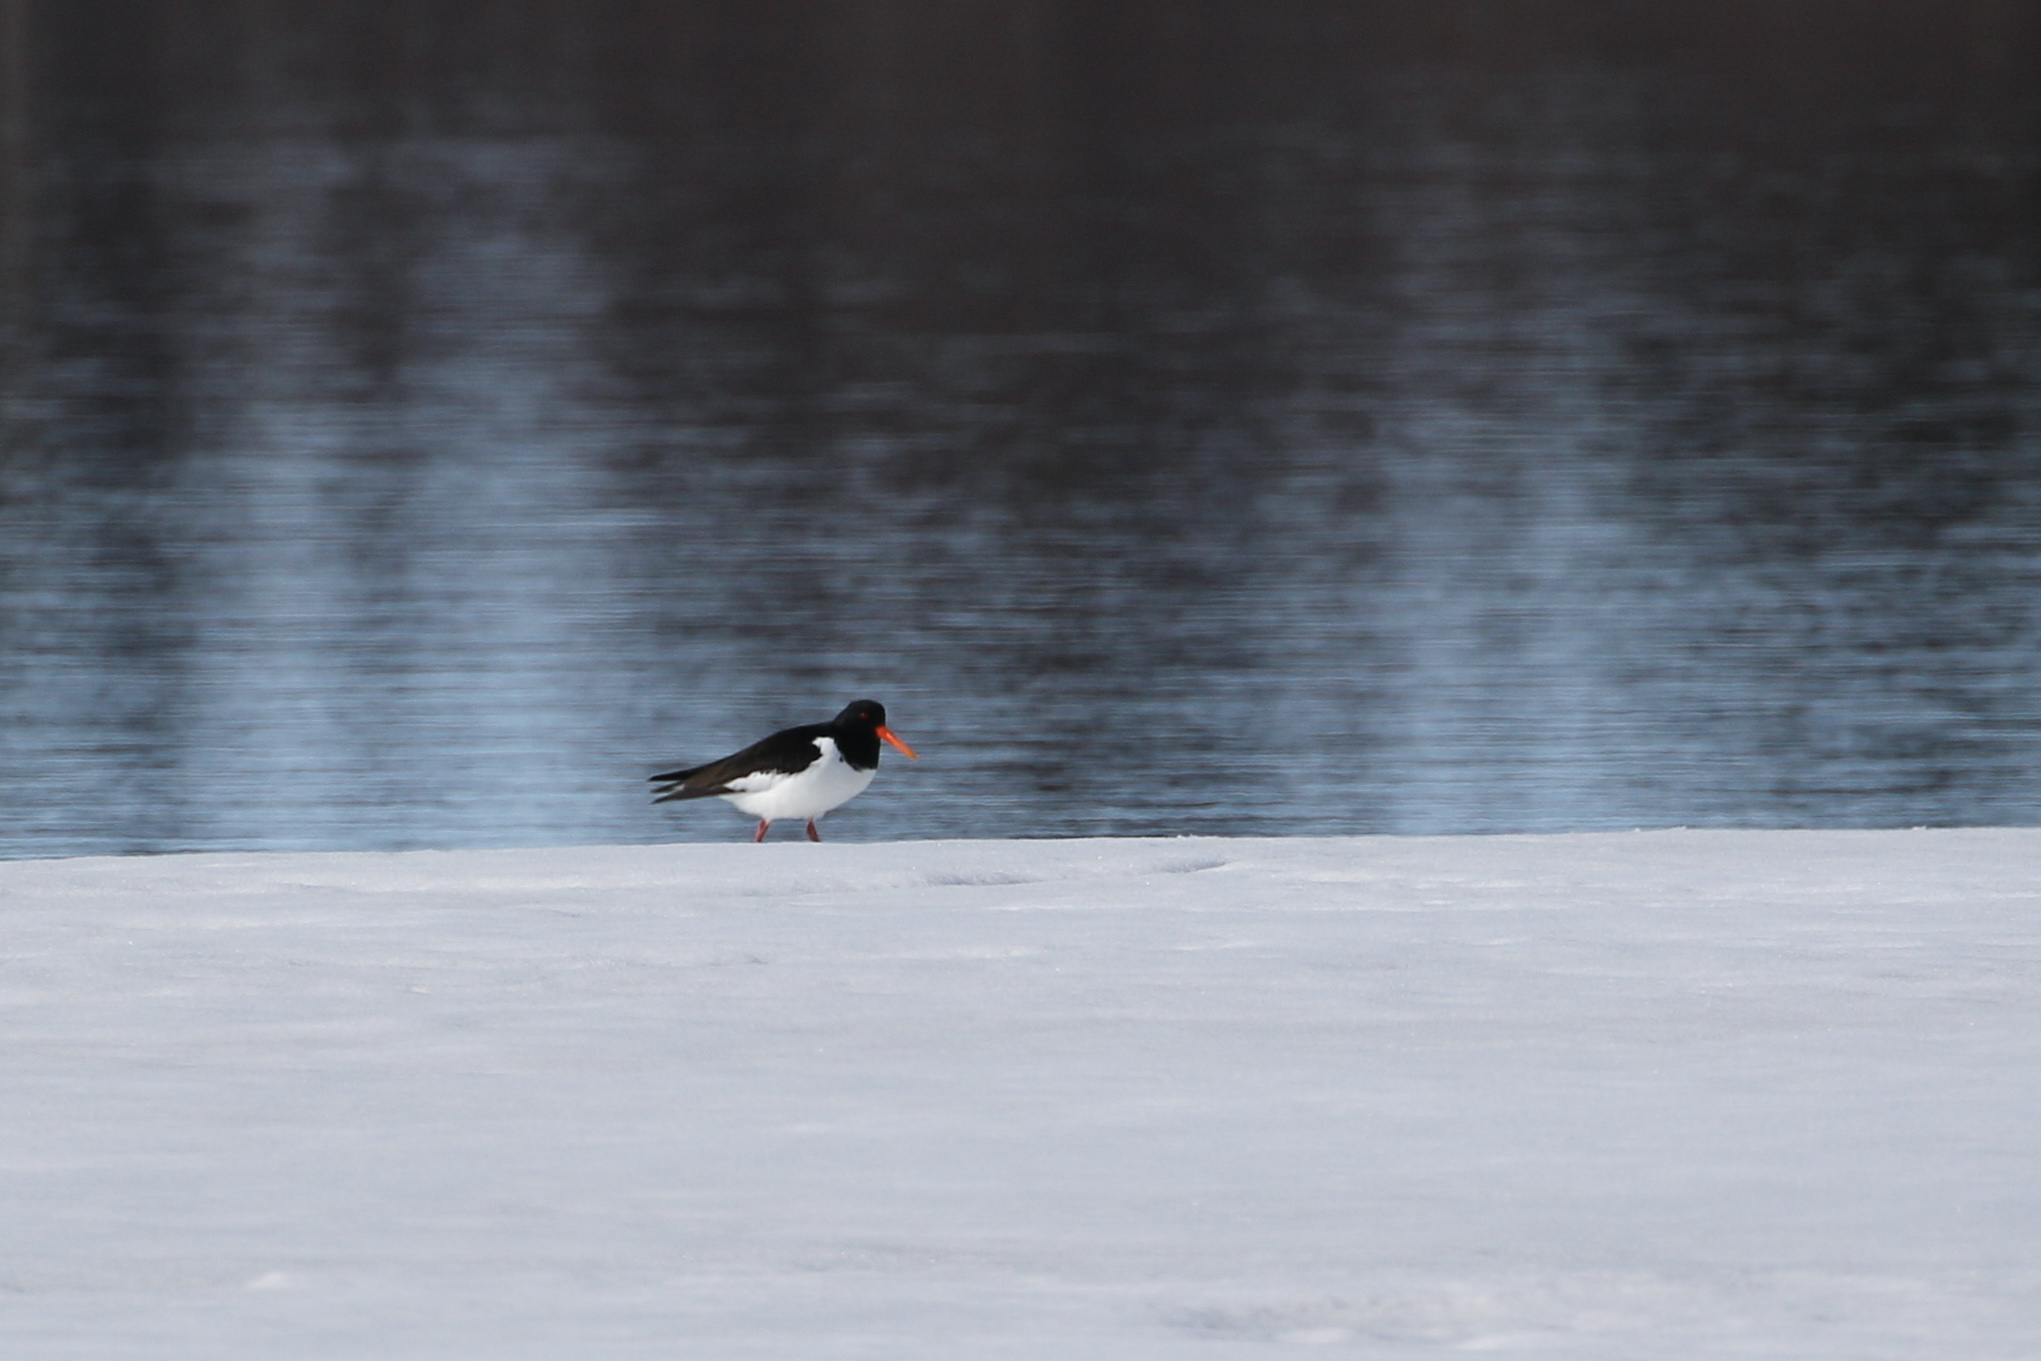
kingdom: Animalia
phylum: Chordata
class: Aves
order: Charadriiformes
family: Haematopodidae
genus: Haematopus
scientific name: Haematopus ostralegus
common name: Eurasian oystercatcher
